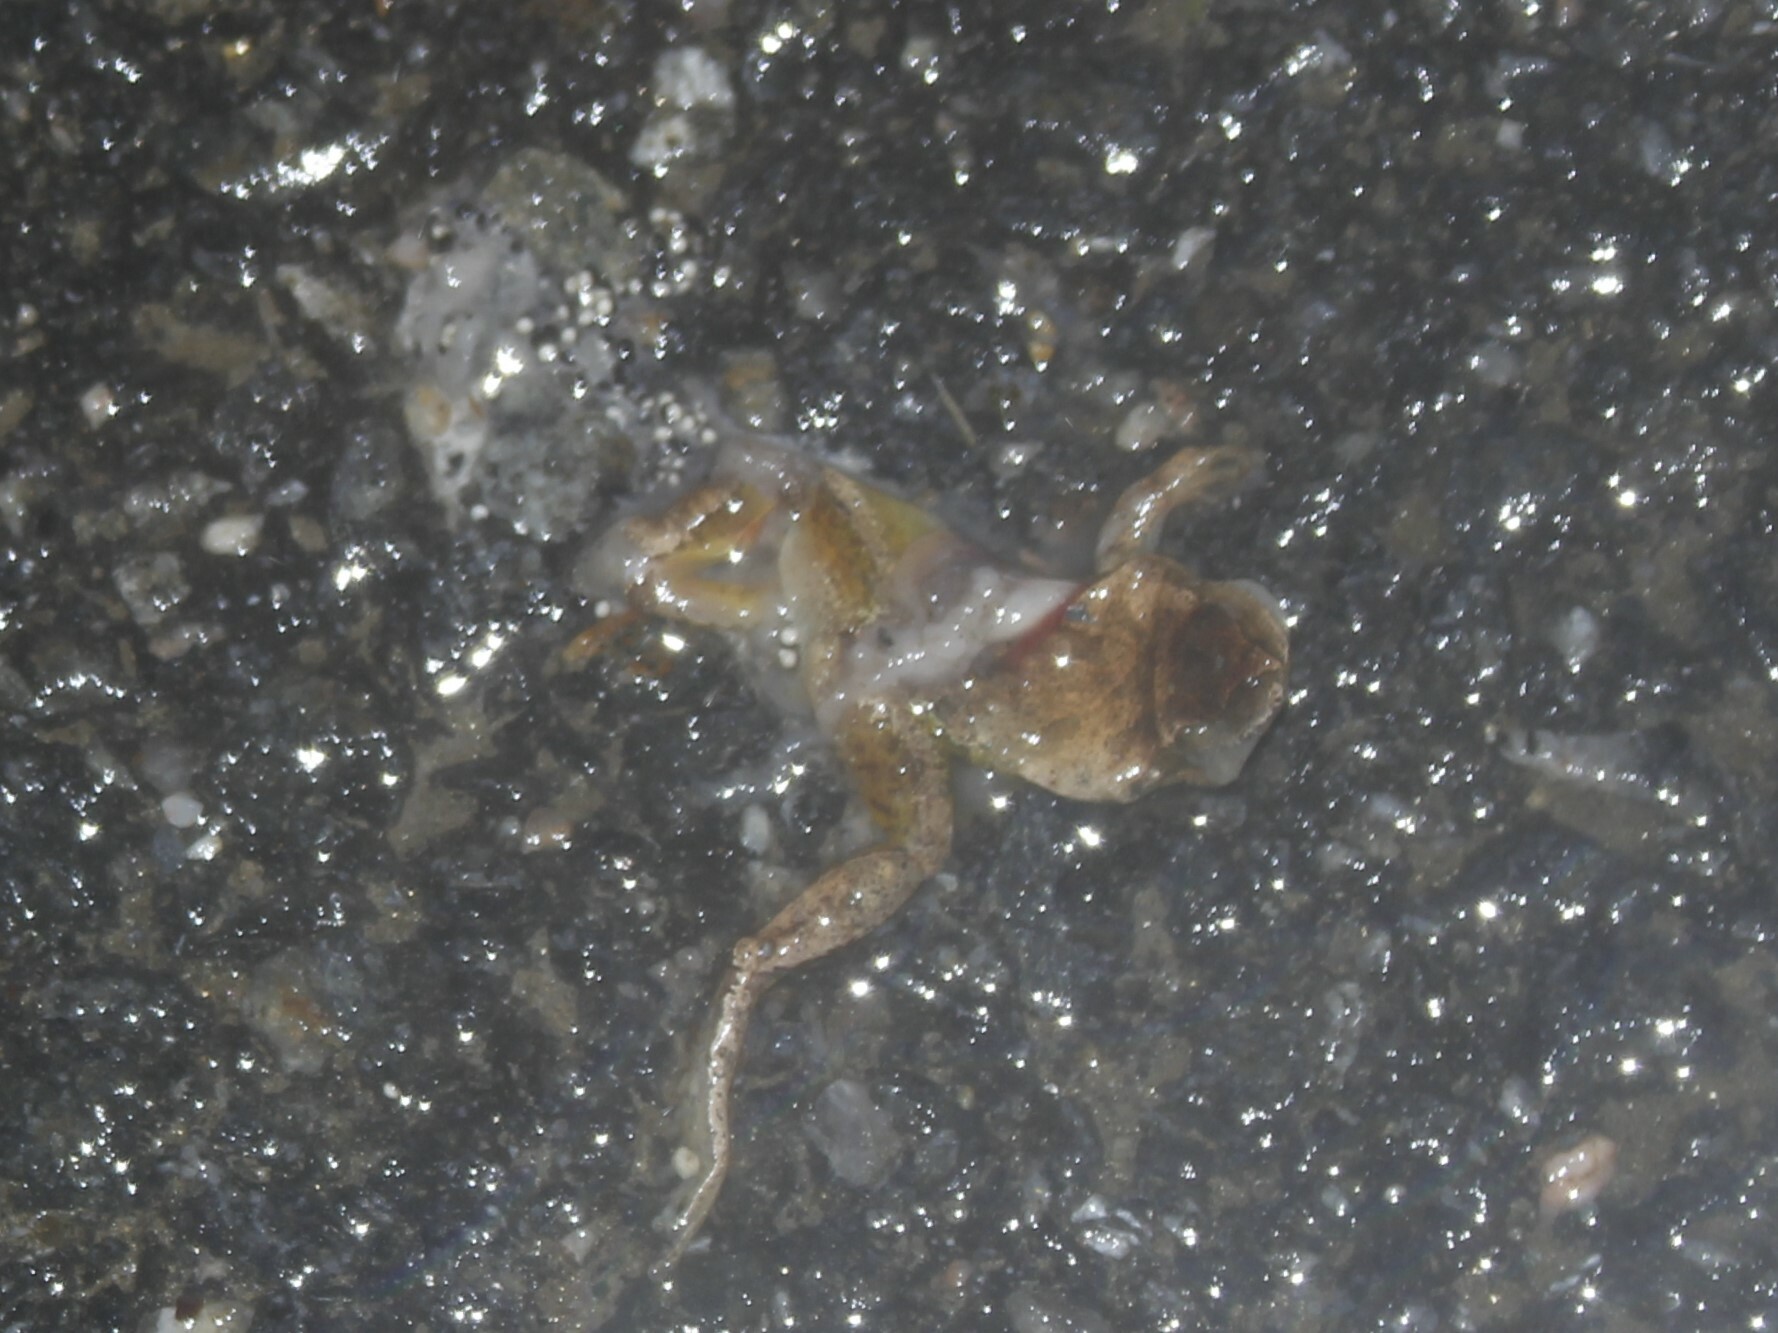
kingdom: Animalia
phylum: Chordata
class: Amphibia
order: Anura
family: Hylidae
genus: Pseudacris
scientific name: Pseudacris crucifer
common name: Spring peeper
